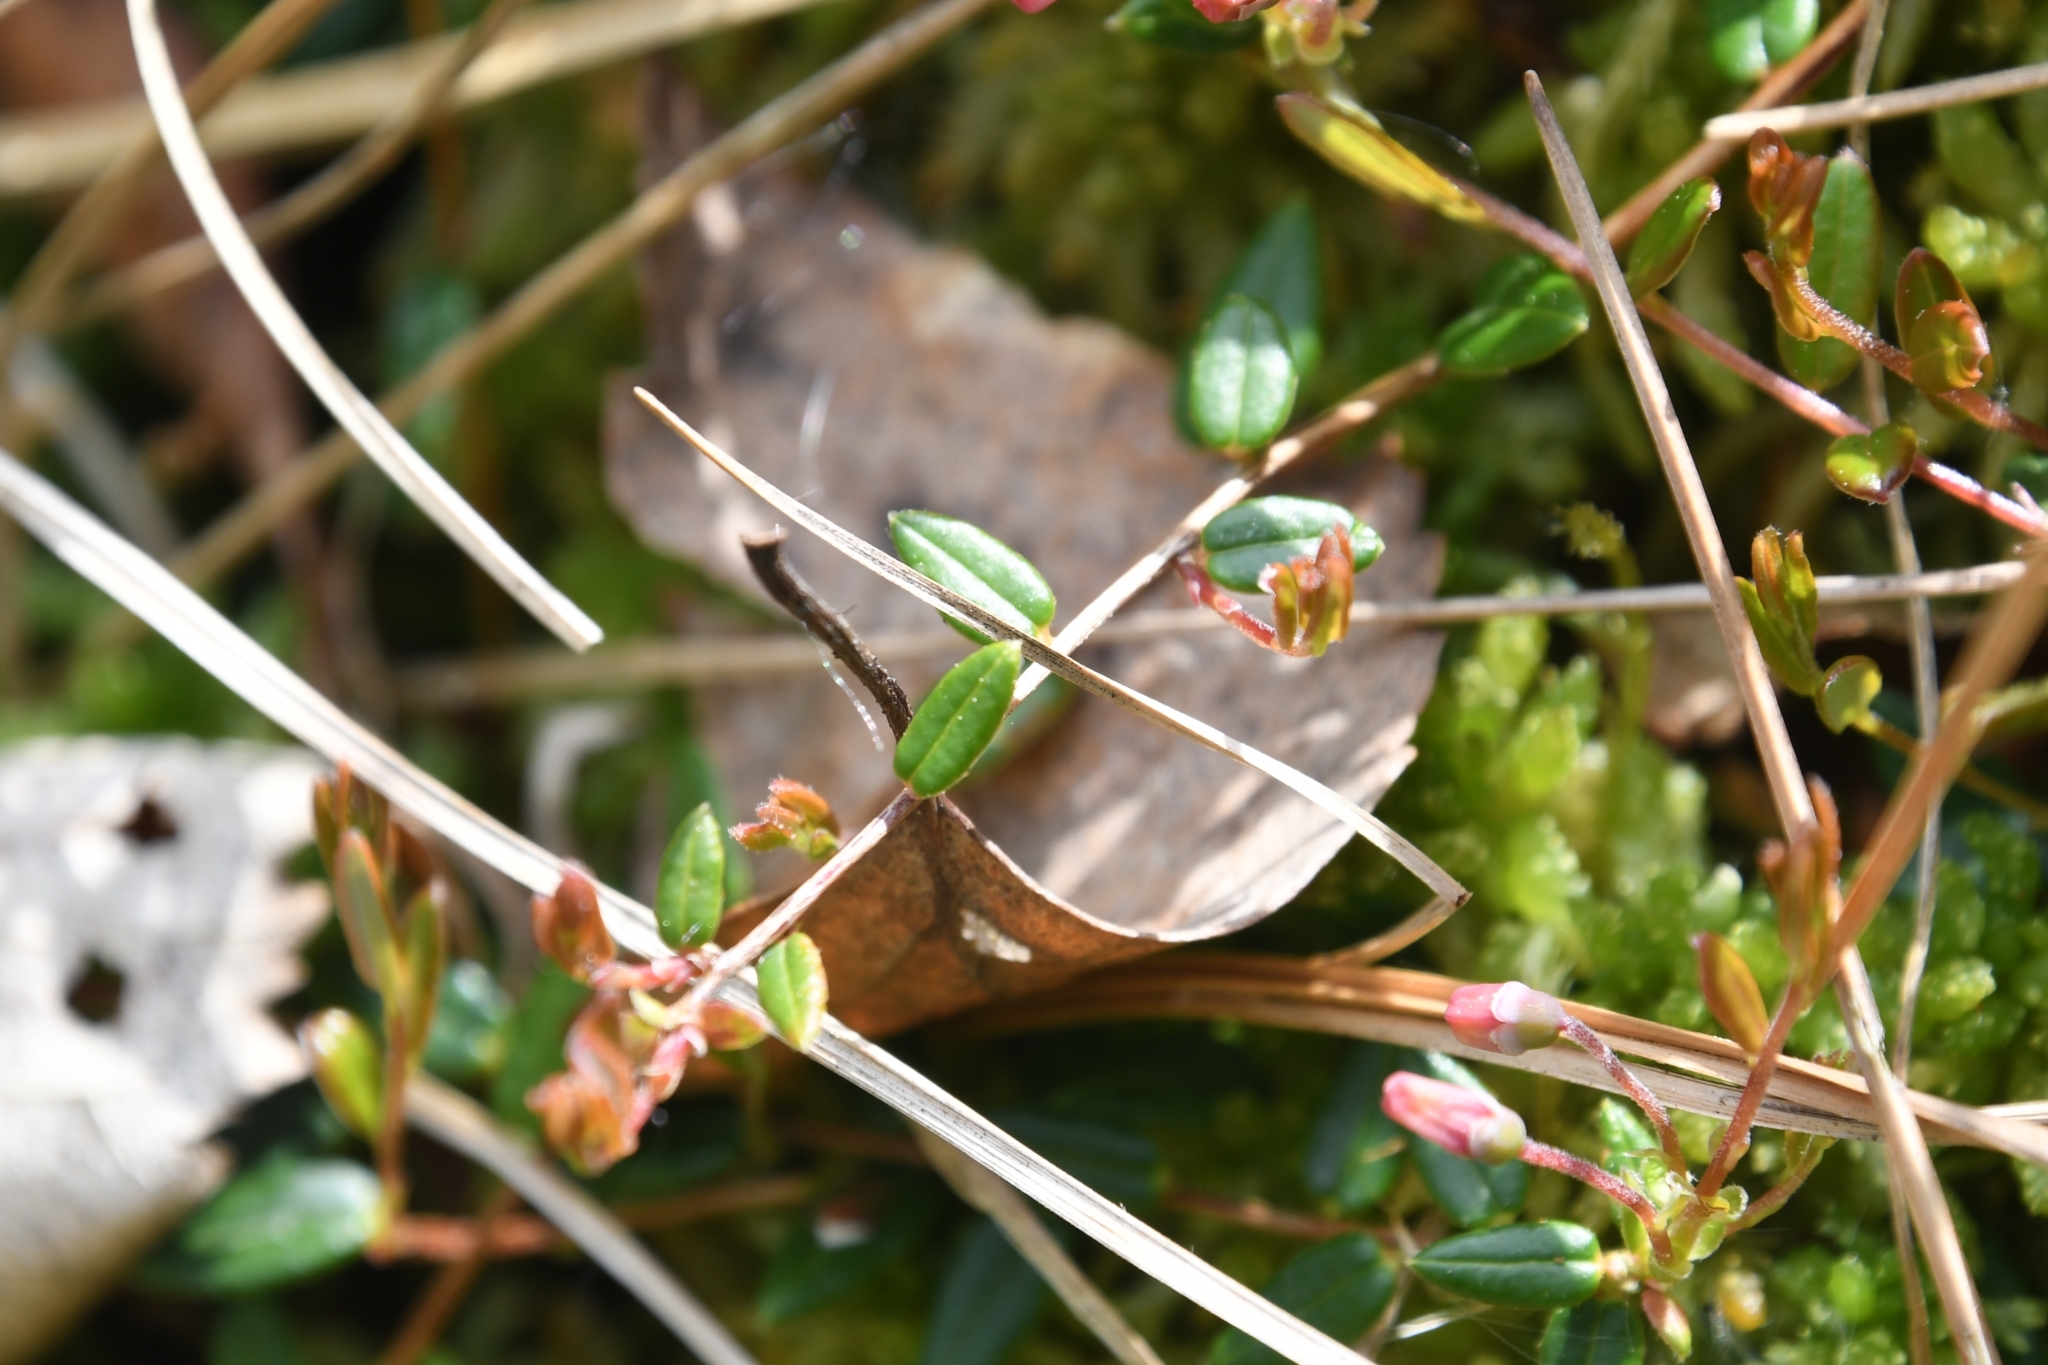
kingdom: Plantae
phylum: Tracheophyta
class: Magnoliopsida
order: Ericales
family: Ericaceae
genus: Vaccinium
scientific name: Vaccinium oxycoccos
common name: Cranberry
